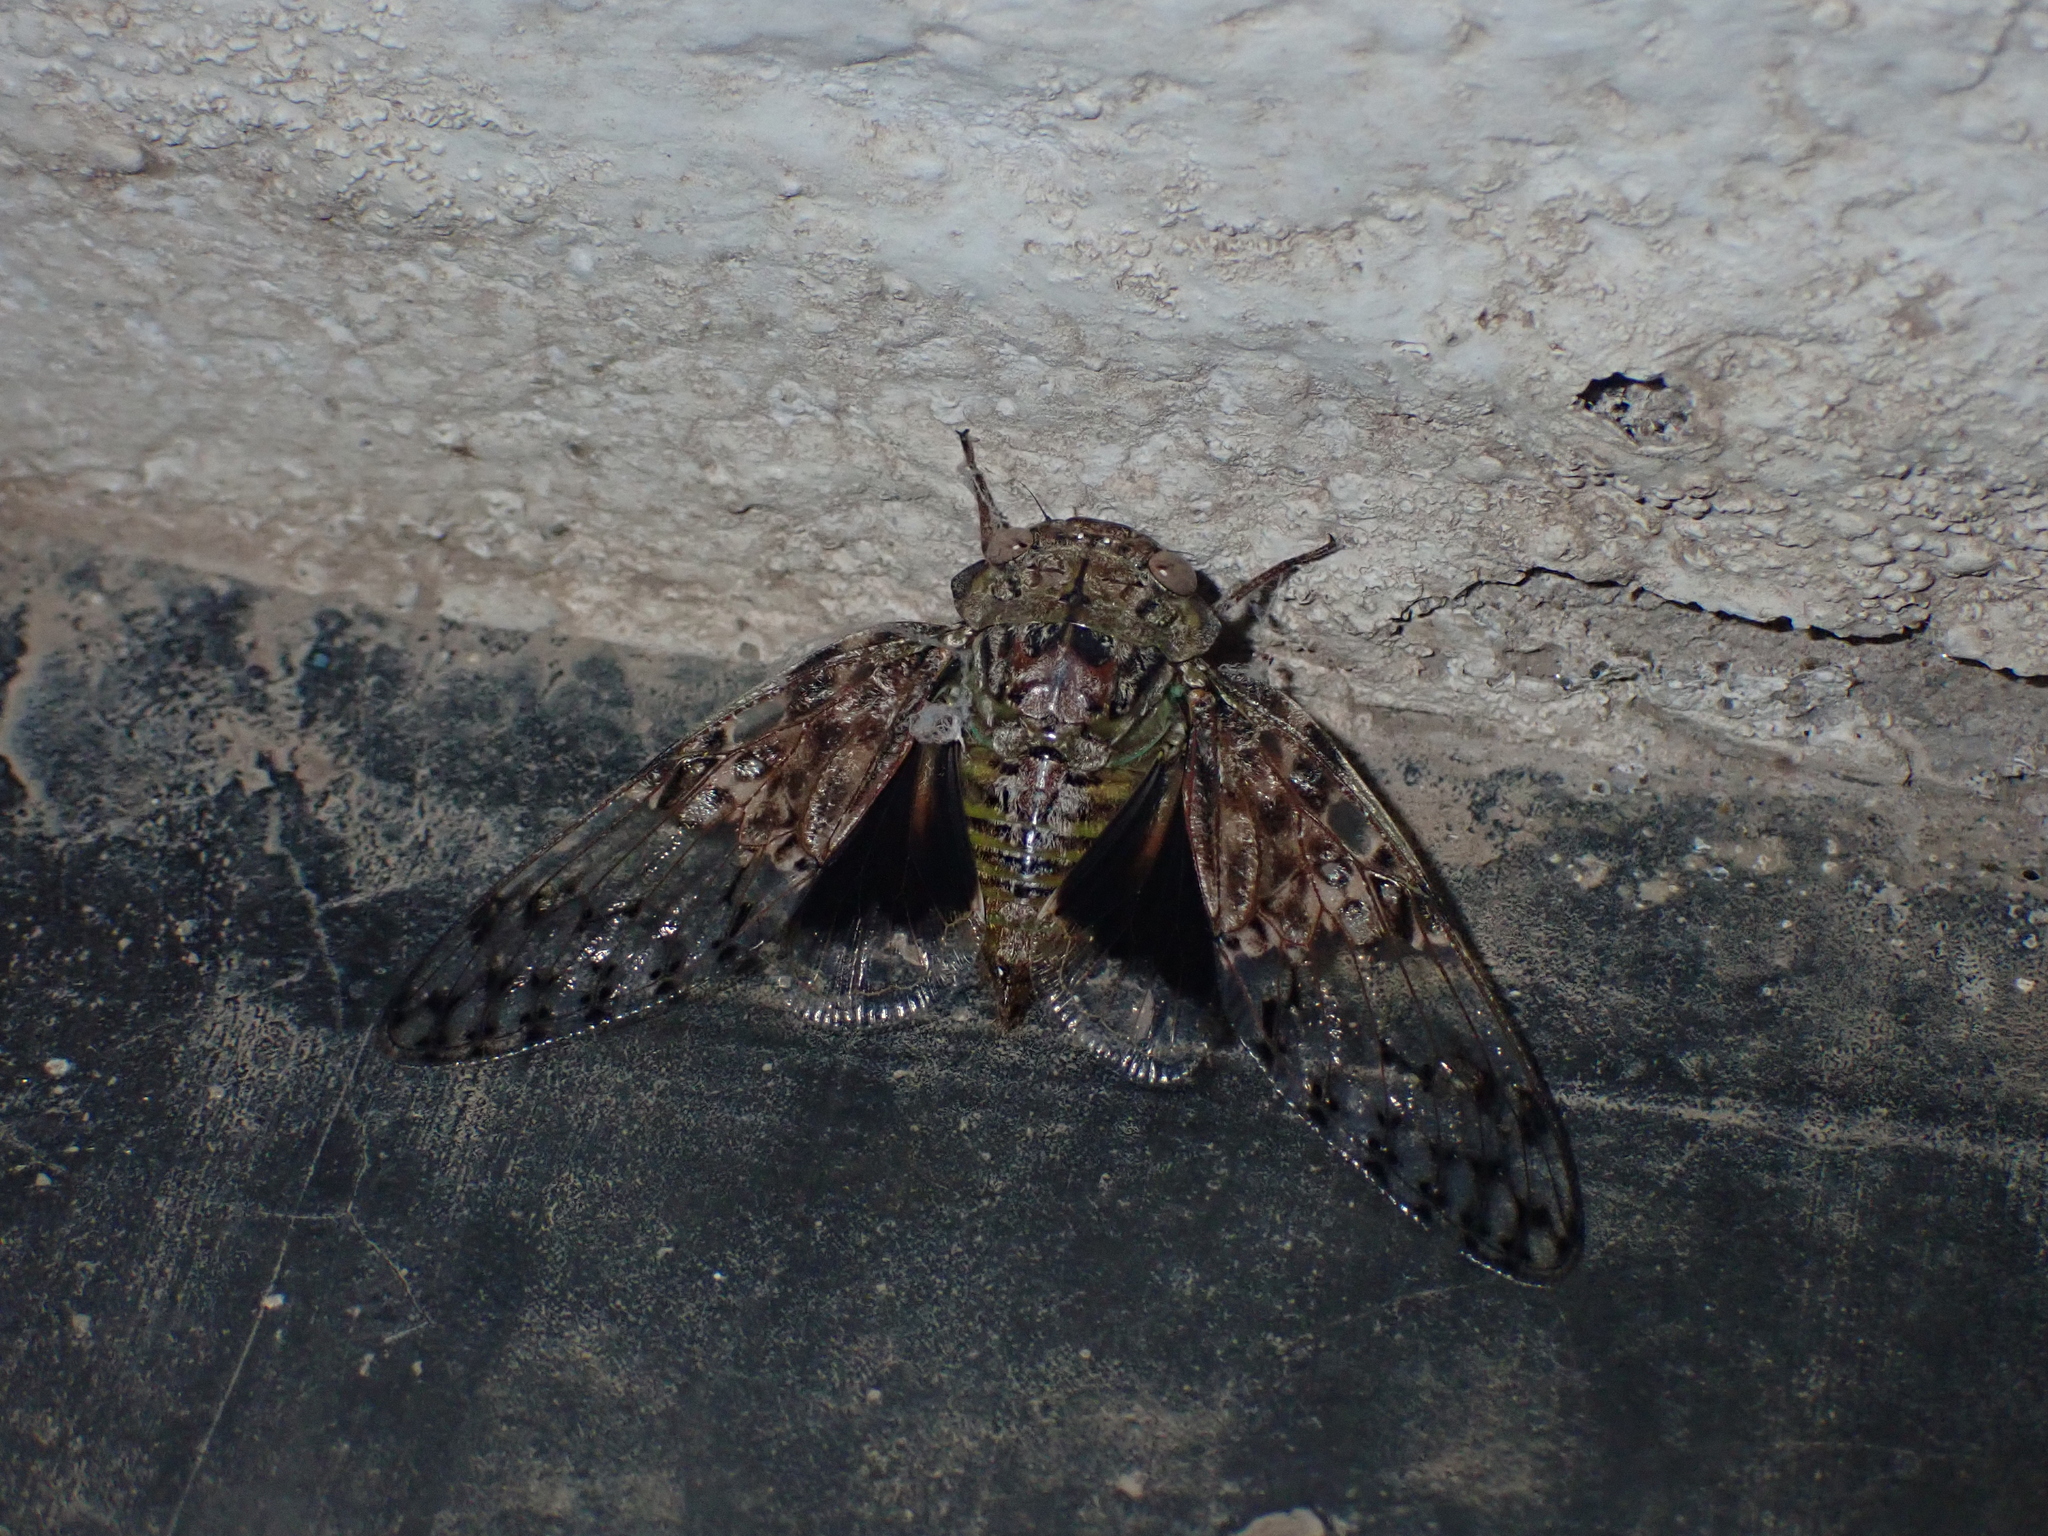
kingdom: Animalia
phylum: Arthropoda
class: Insecta
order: Hemiptera
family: Cicadidae
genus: Afzeliada
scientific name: Afzeliada badia
